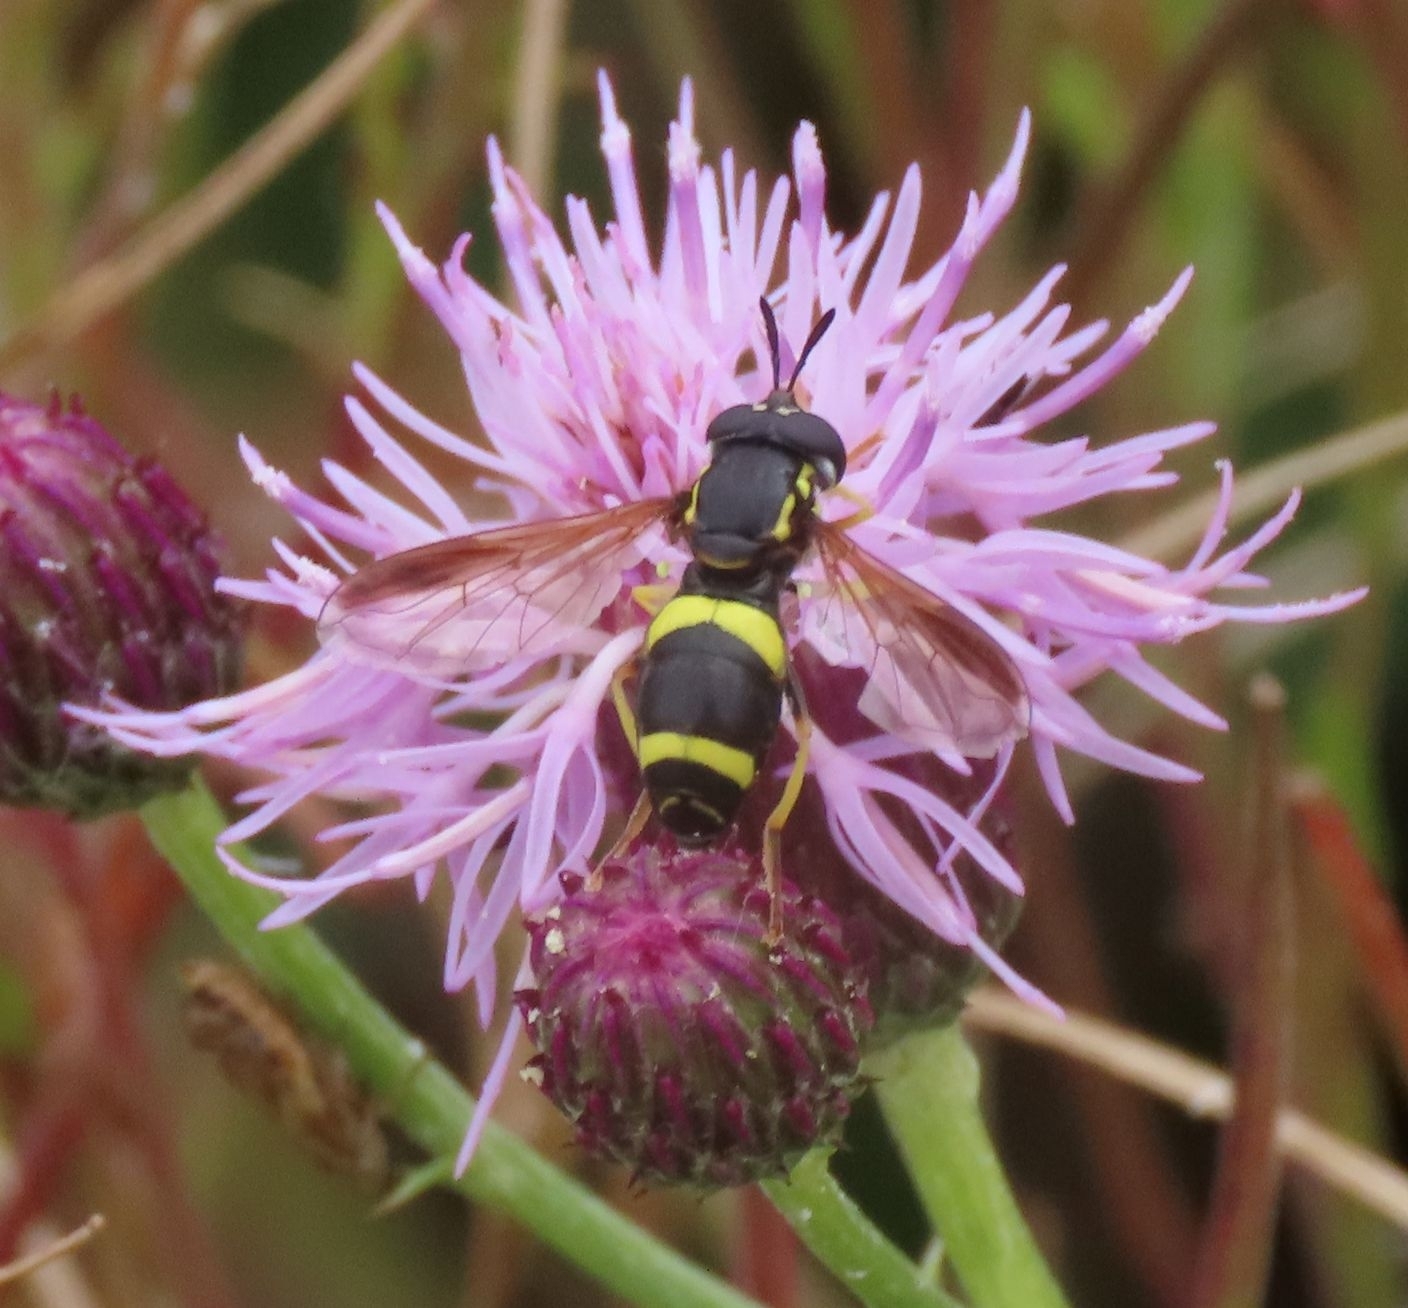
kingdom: Animalia
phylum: Arthropoda
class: Insecta
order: Diptera
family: Syrphidae
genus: Chrysotoxum
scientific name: Chrysotoxum bicincta
